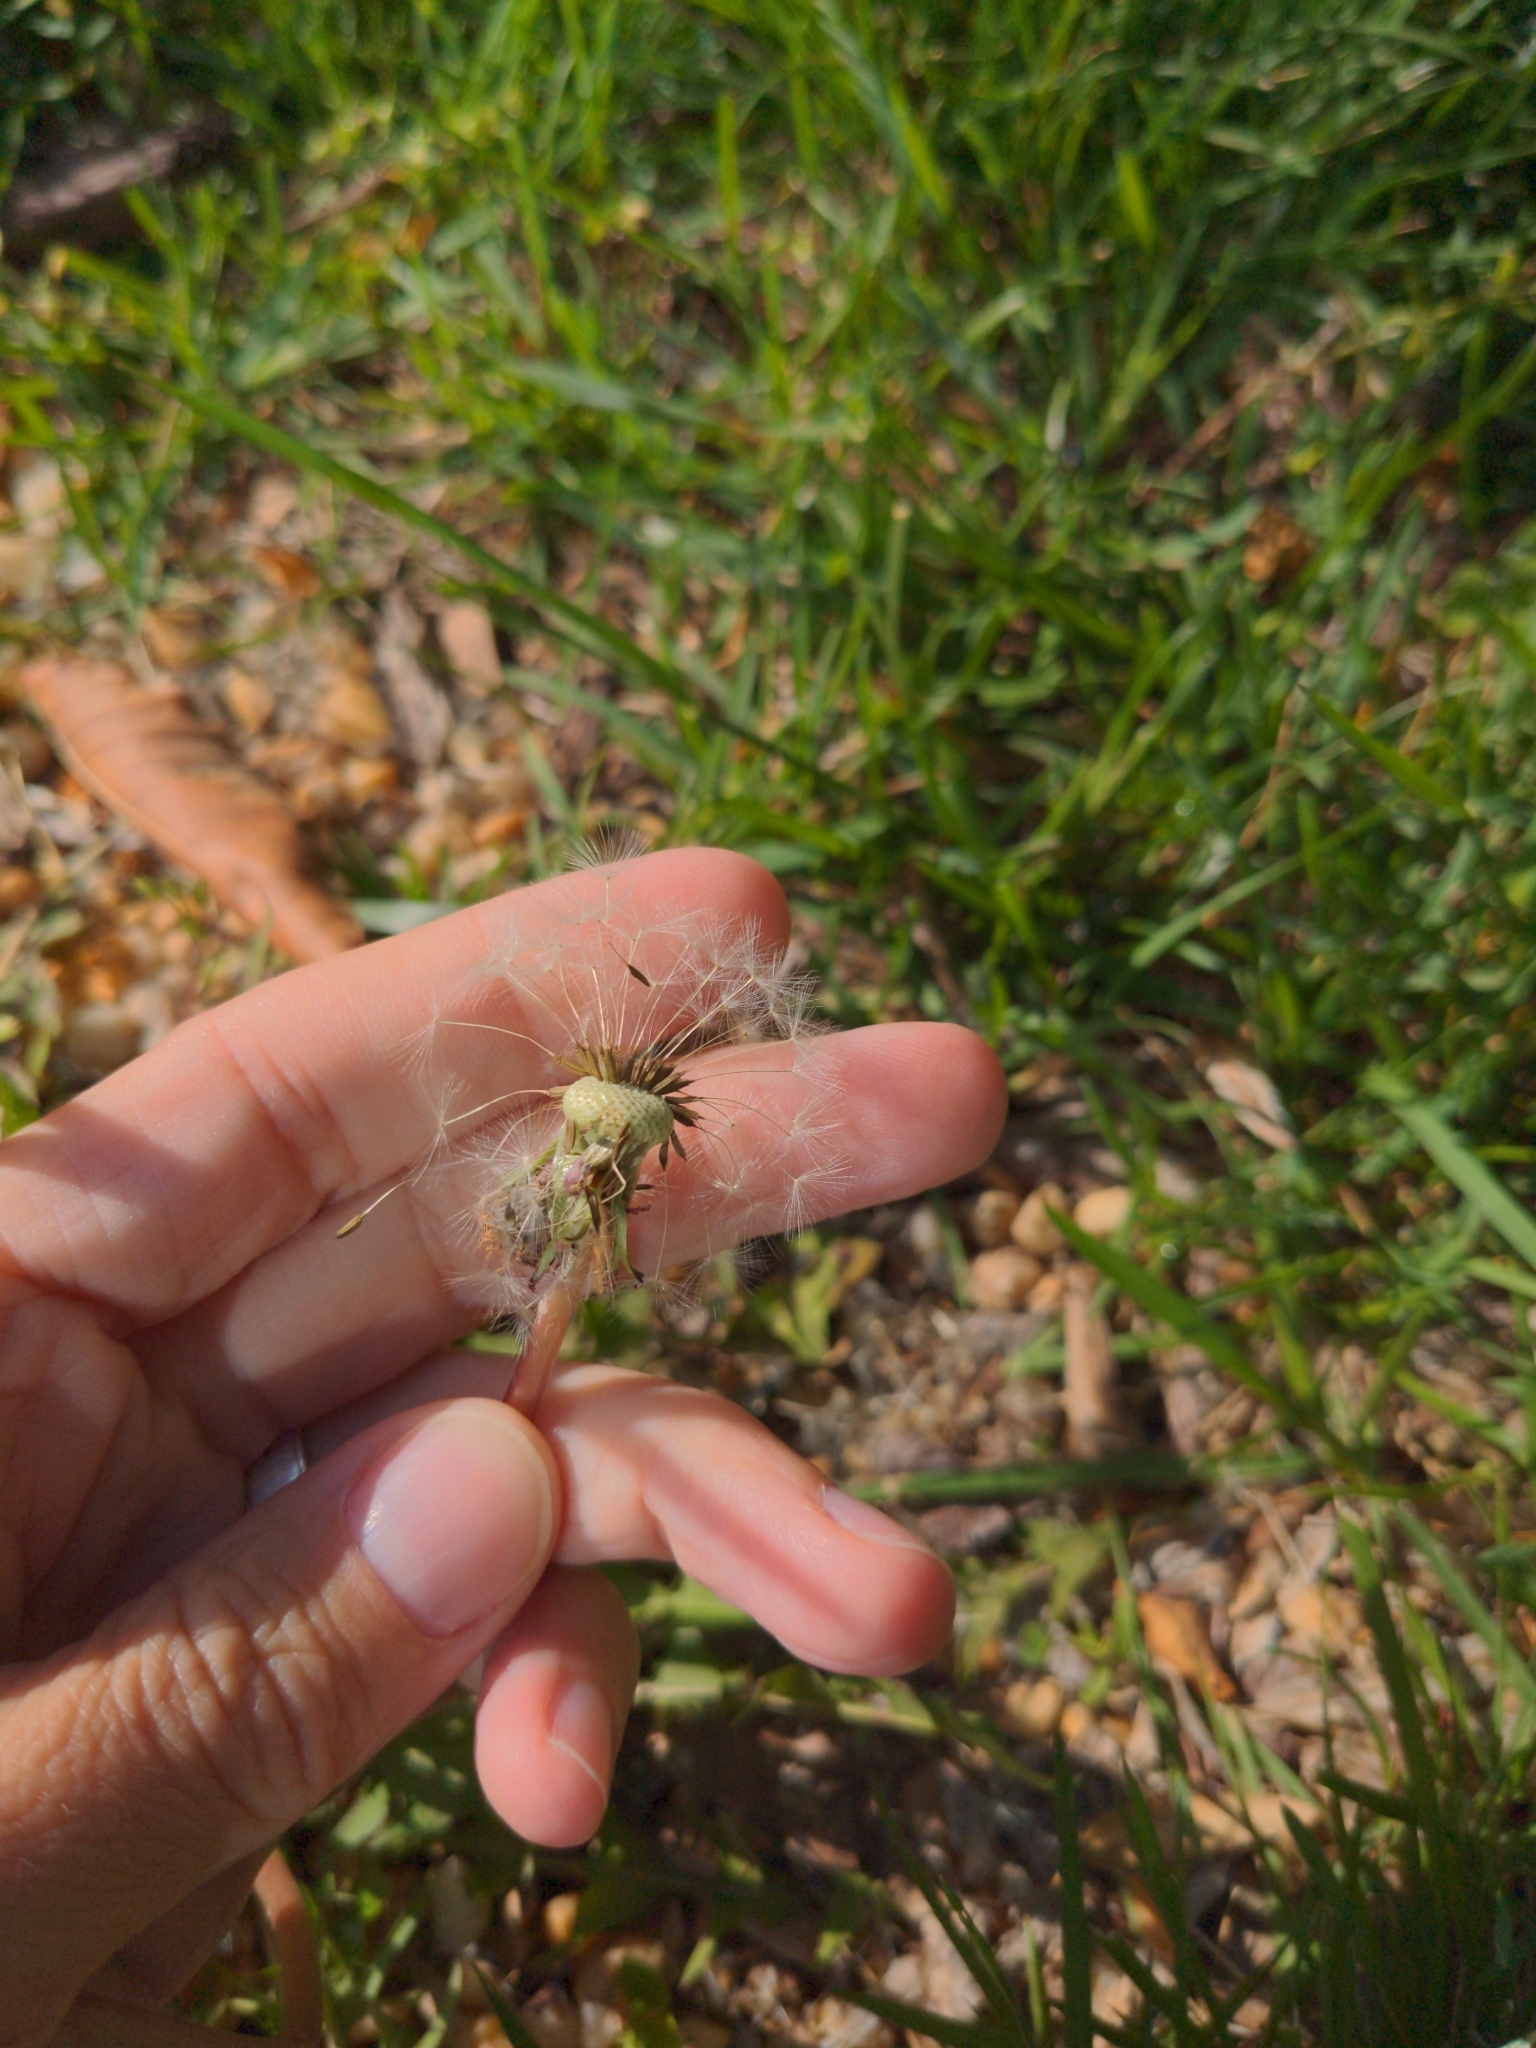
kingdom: Plantae
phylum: Tracheophyta
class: Magnoliopsida
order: Asterales
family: Asteraceae
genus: Taraxacum
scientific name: Taraxacum officinale
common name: Common dandelion
